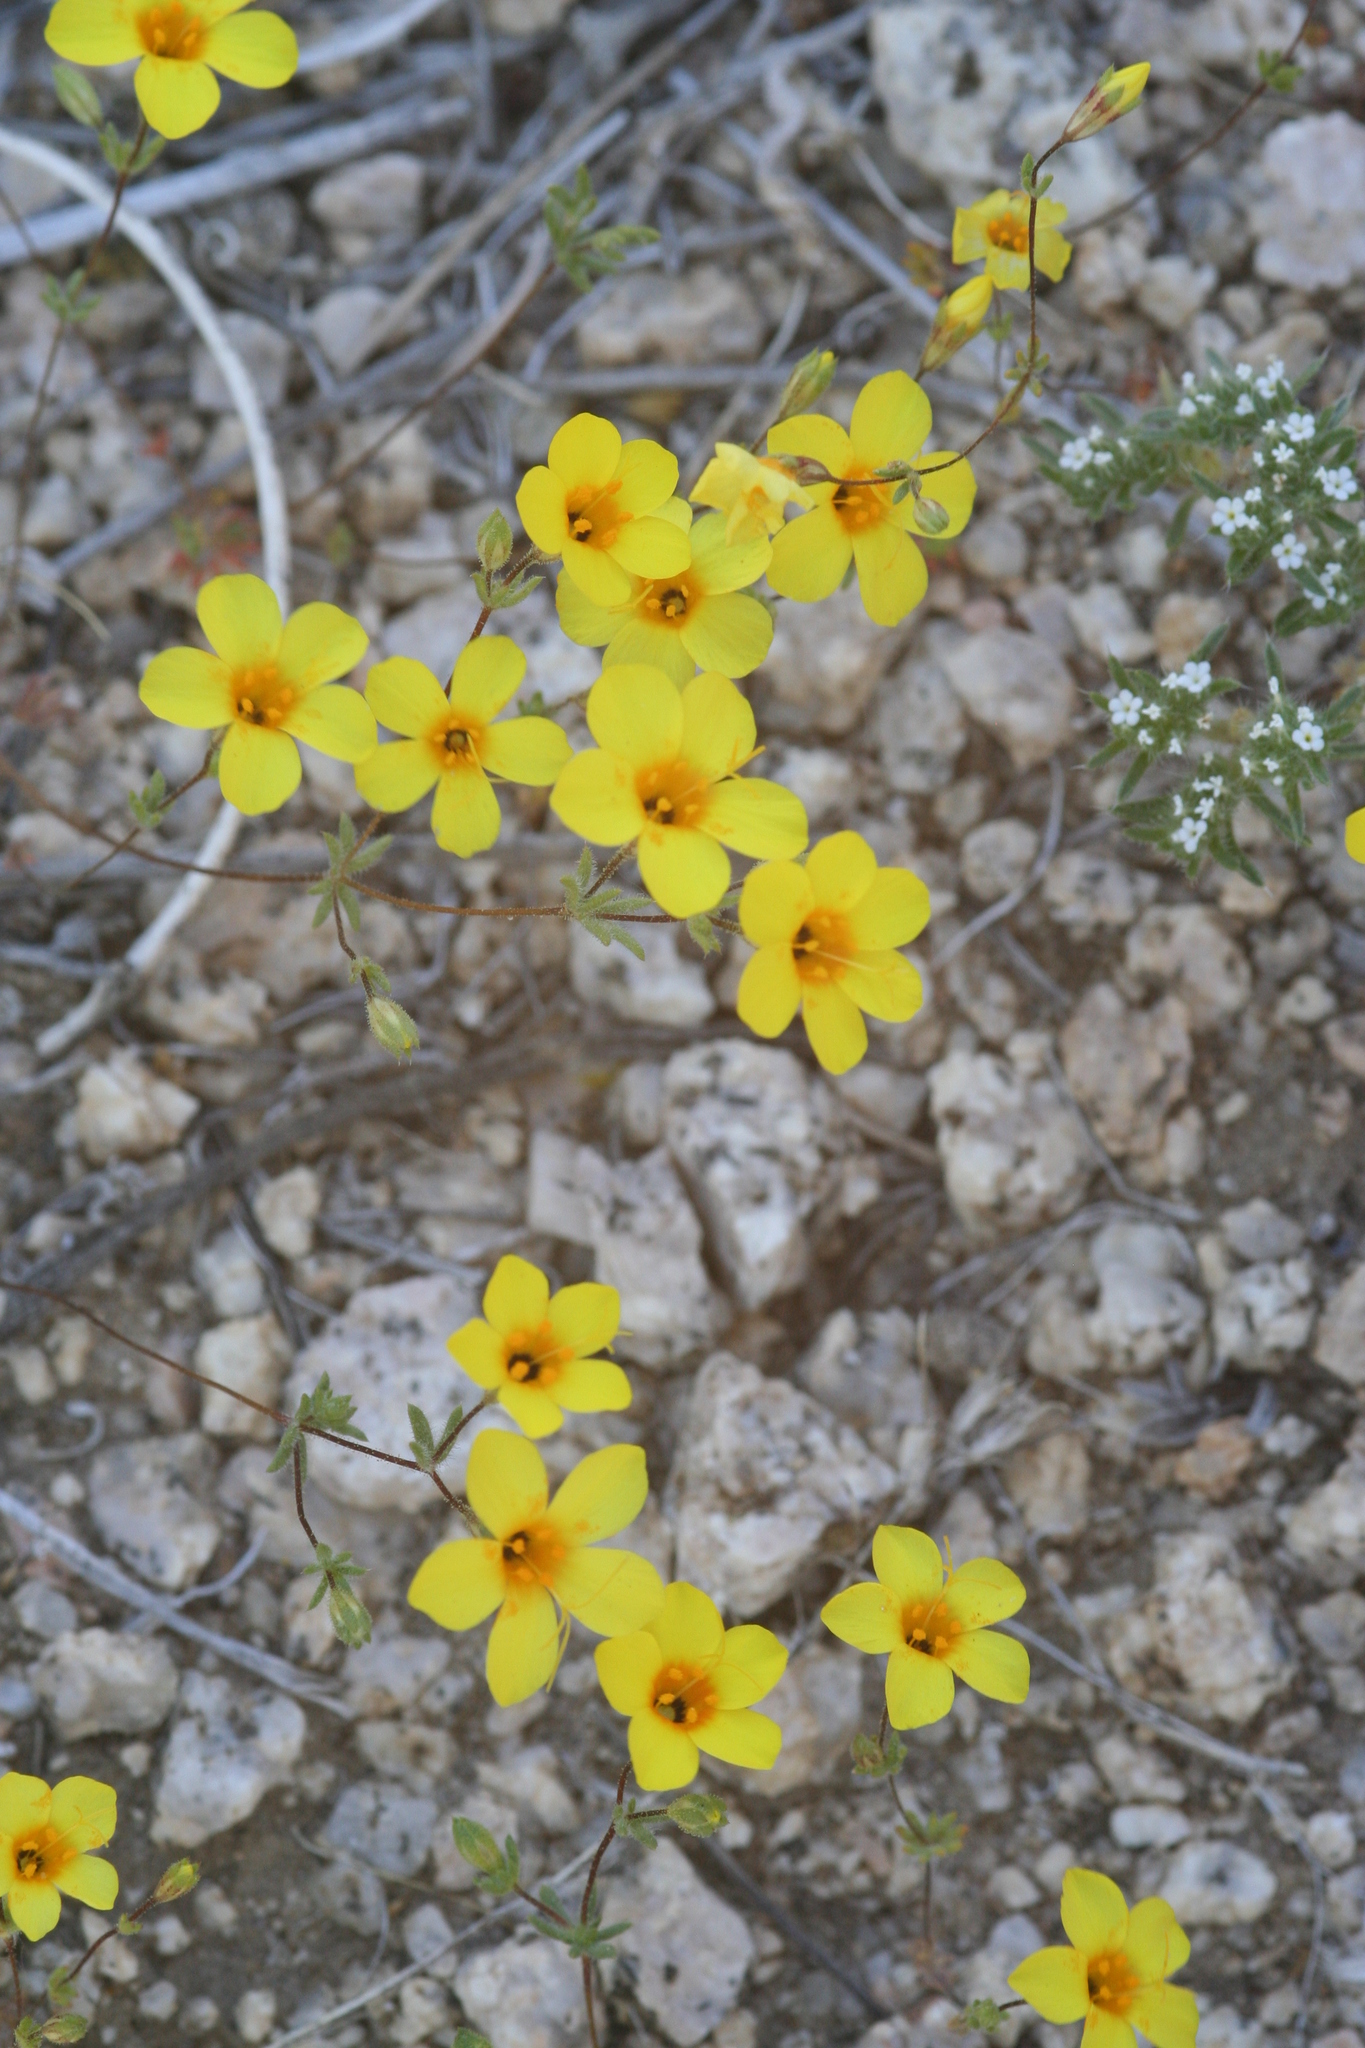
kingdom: Plantae
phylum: Tracheophyta
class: Magnoliopsida
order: Ericales
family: Polemoniaceae
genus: Leptosiphon
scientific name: Leptosiphon chrysanthus
